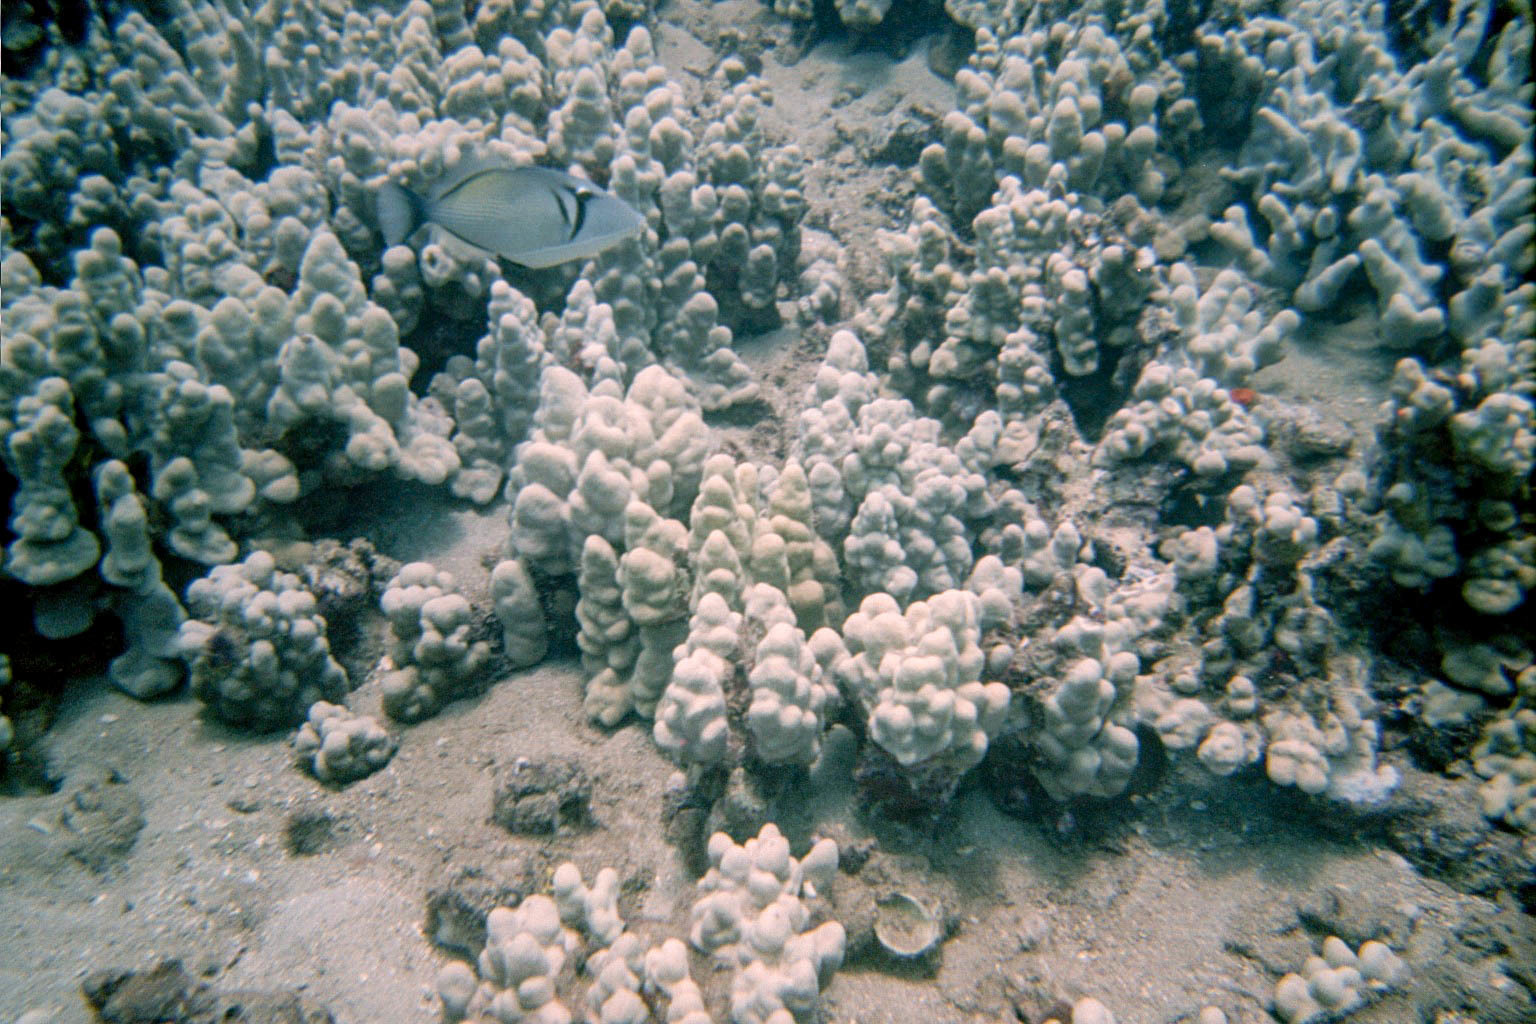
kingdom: Animalia
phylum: Chordata
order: Tetraodontiformes
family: Balistidae
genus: Sufflamen
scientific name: Sufflamen bursa
